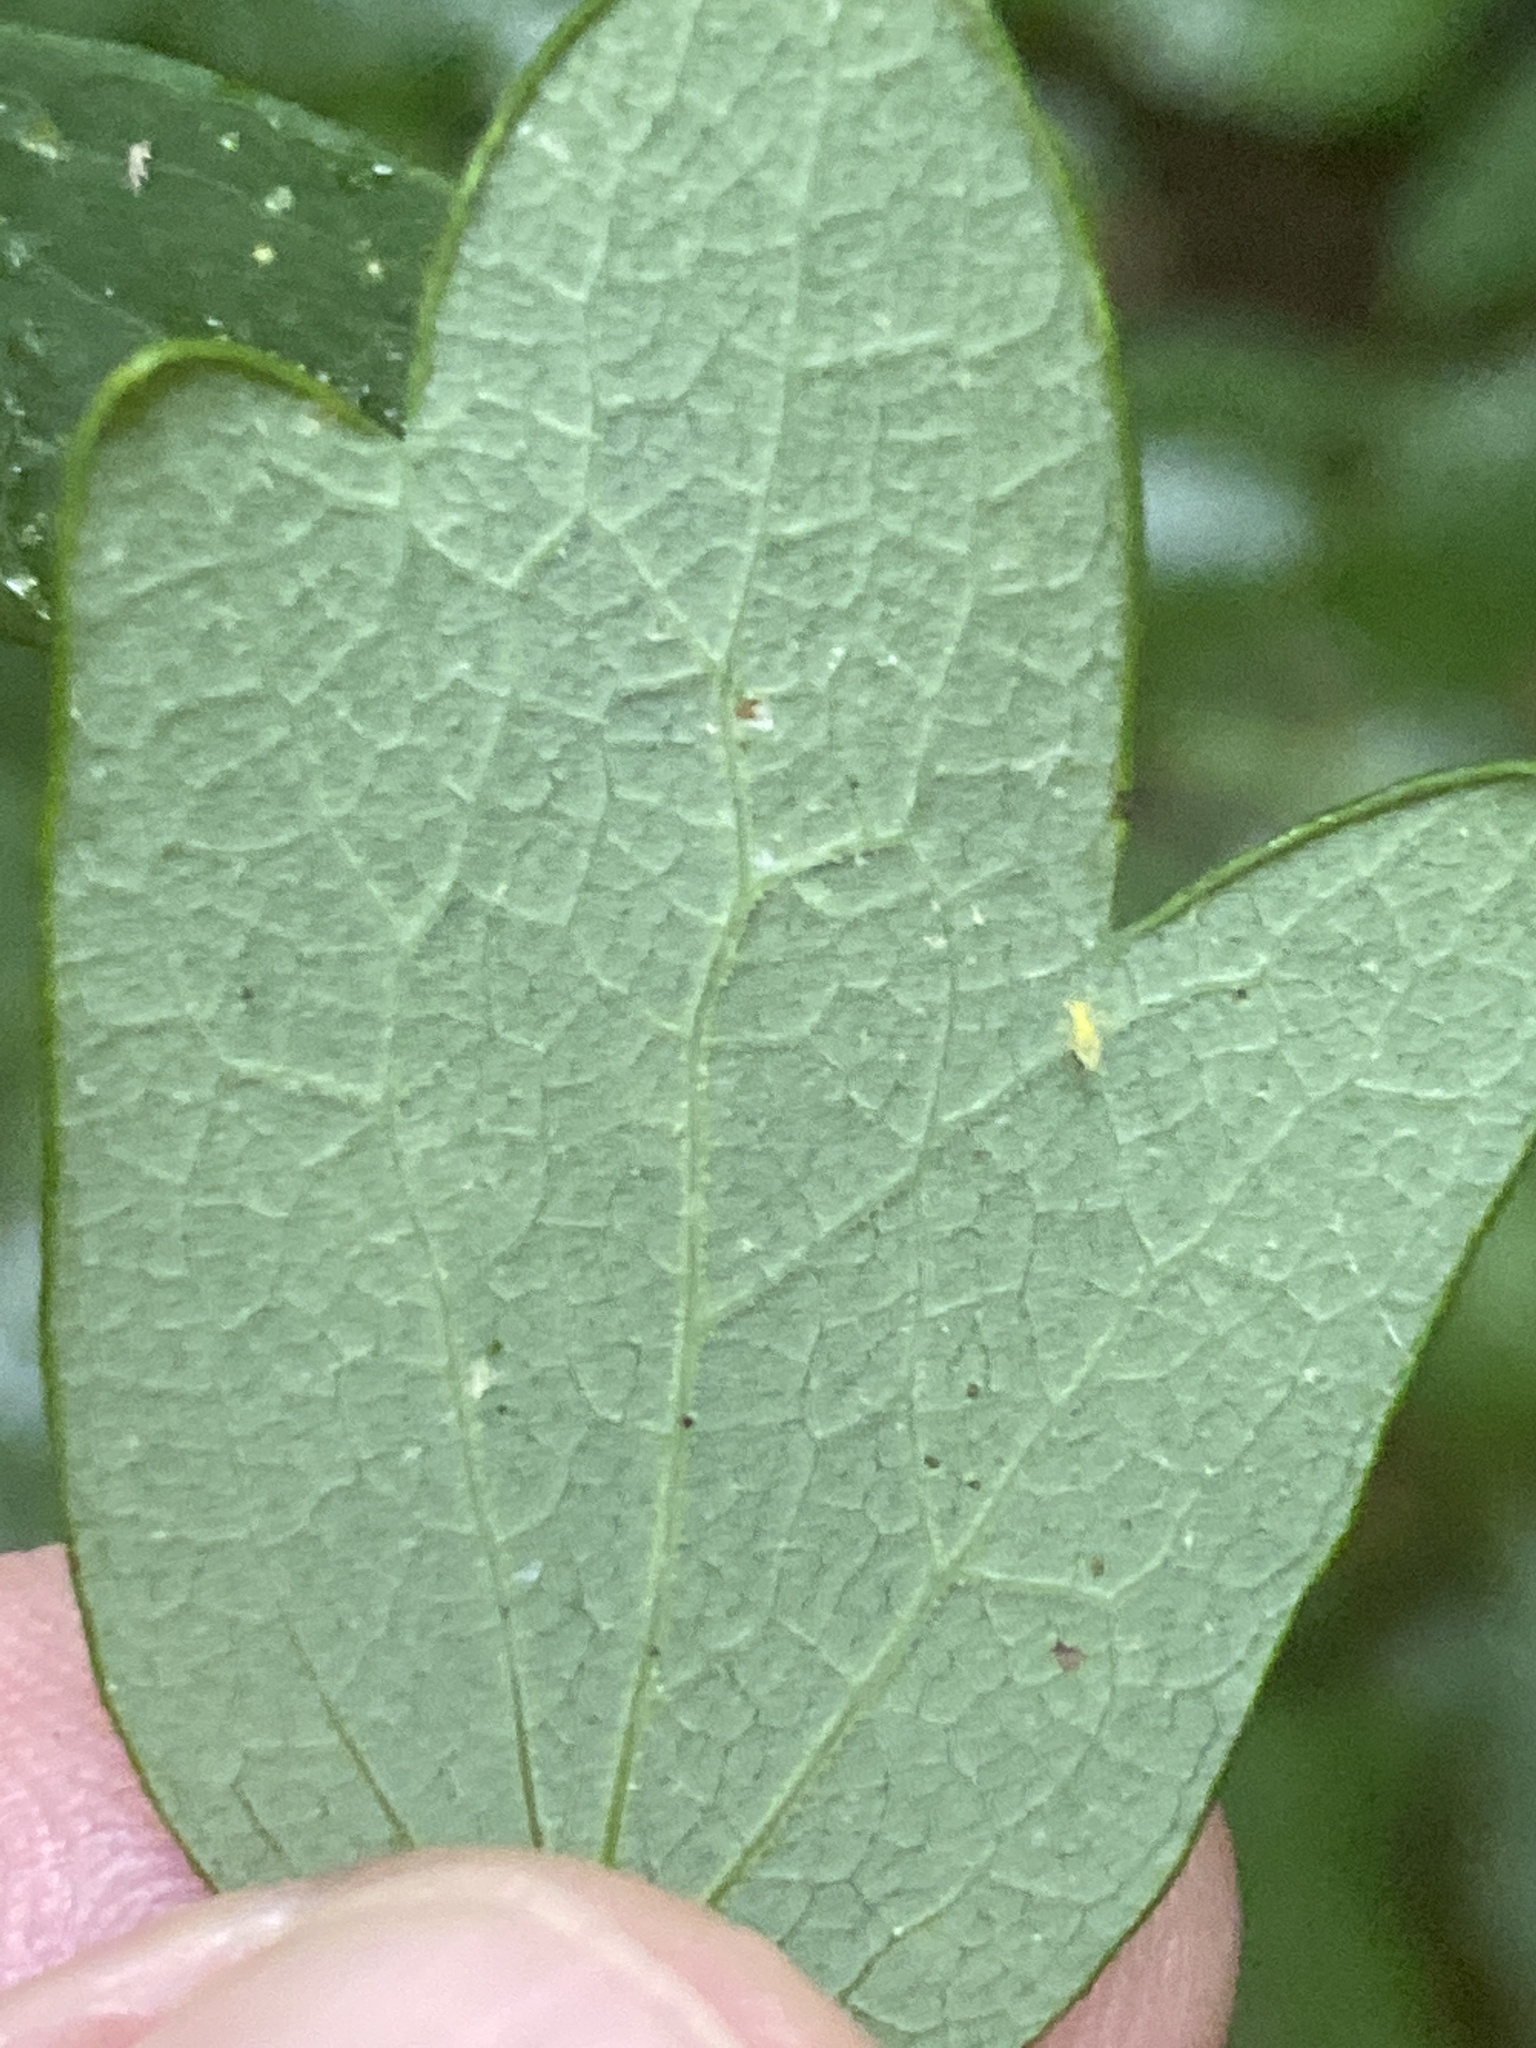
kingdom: Plantae
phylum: Tracheophyta
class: Magnoliopsida
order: Ranunculales
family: Ranunculaceae
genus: Thalictrum
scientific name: Thalictrum pubescens
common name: King-of-the-meadow
